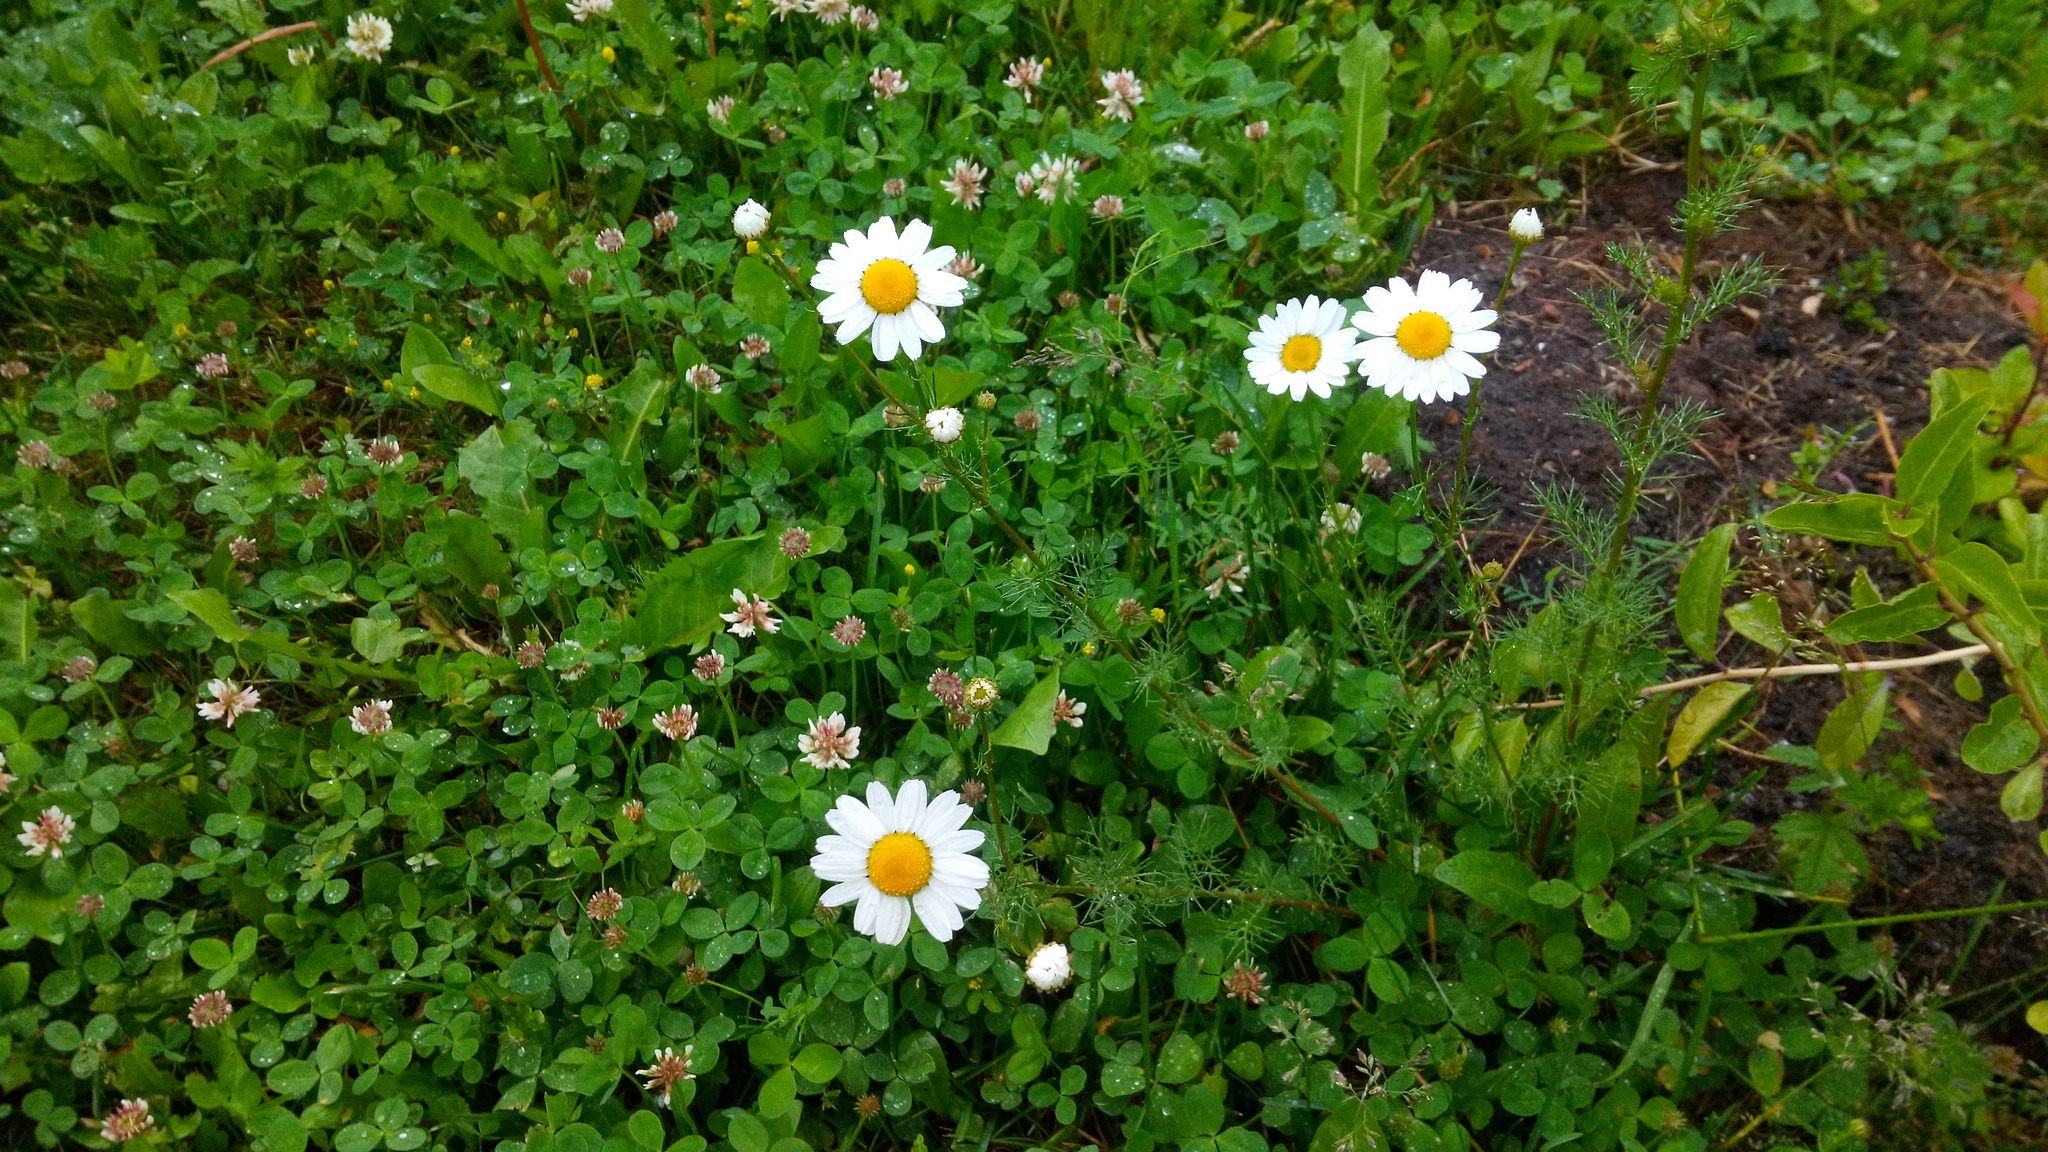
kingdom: Plantae
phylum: Tracheophyta
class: Magnoliopsida
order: Asterales
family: Asteraceae
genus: Tripleurospermum
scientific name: Tripleurospermum inodorum
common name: Scentless mayweed
